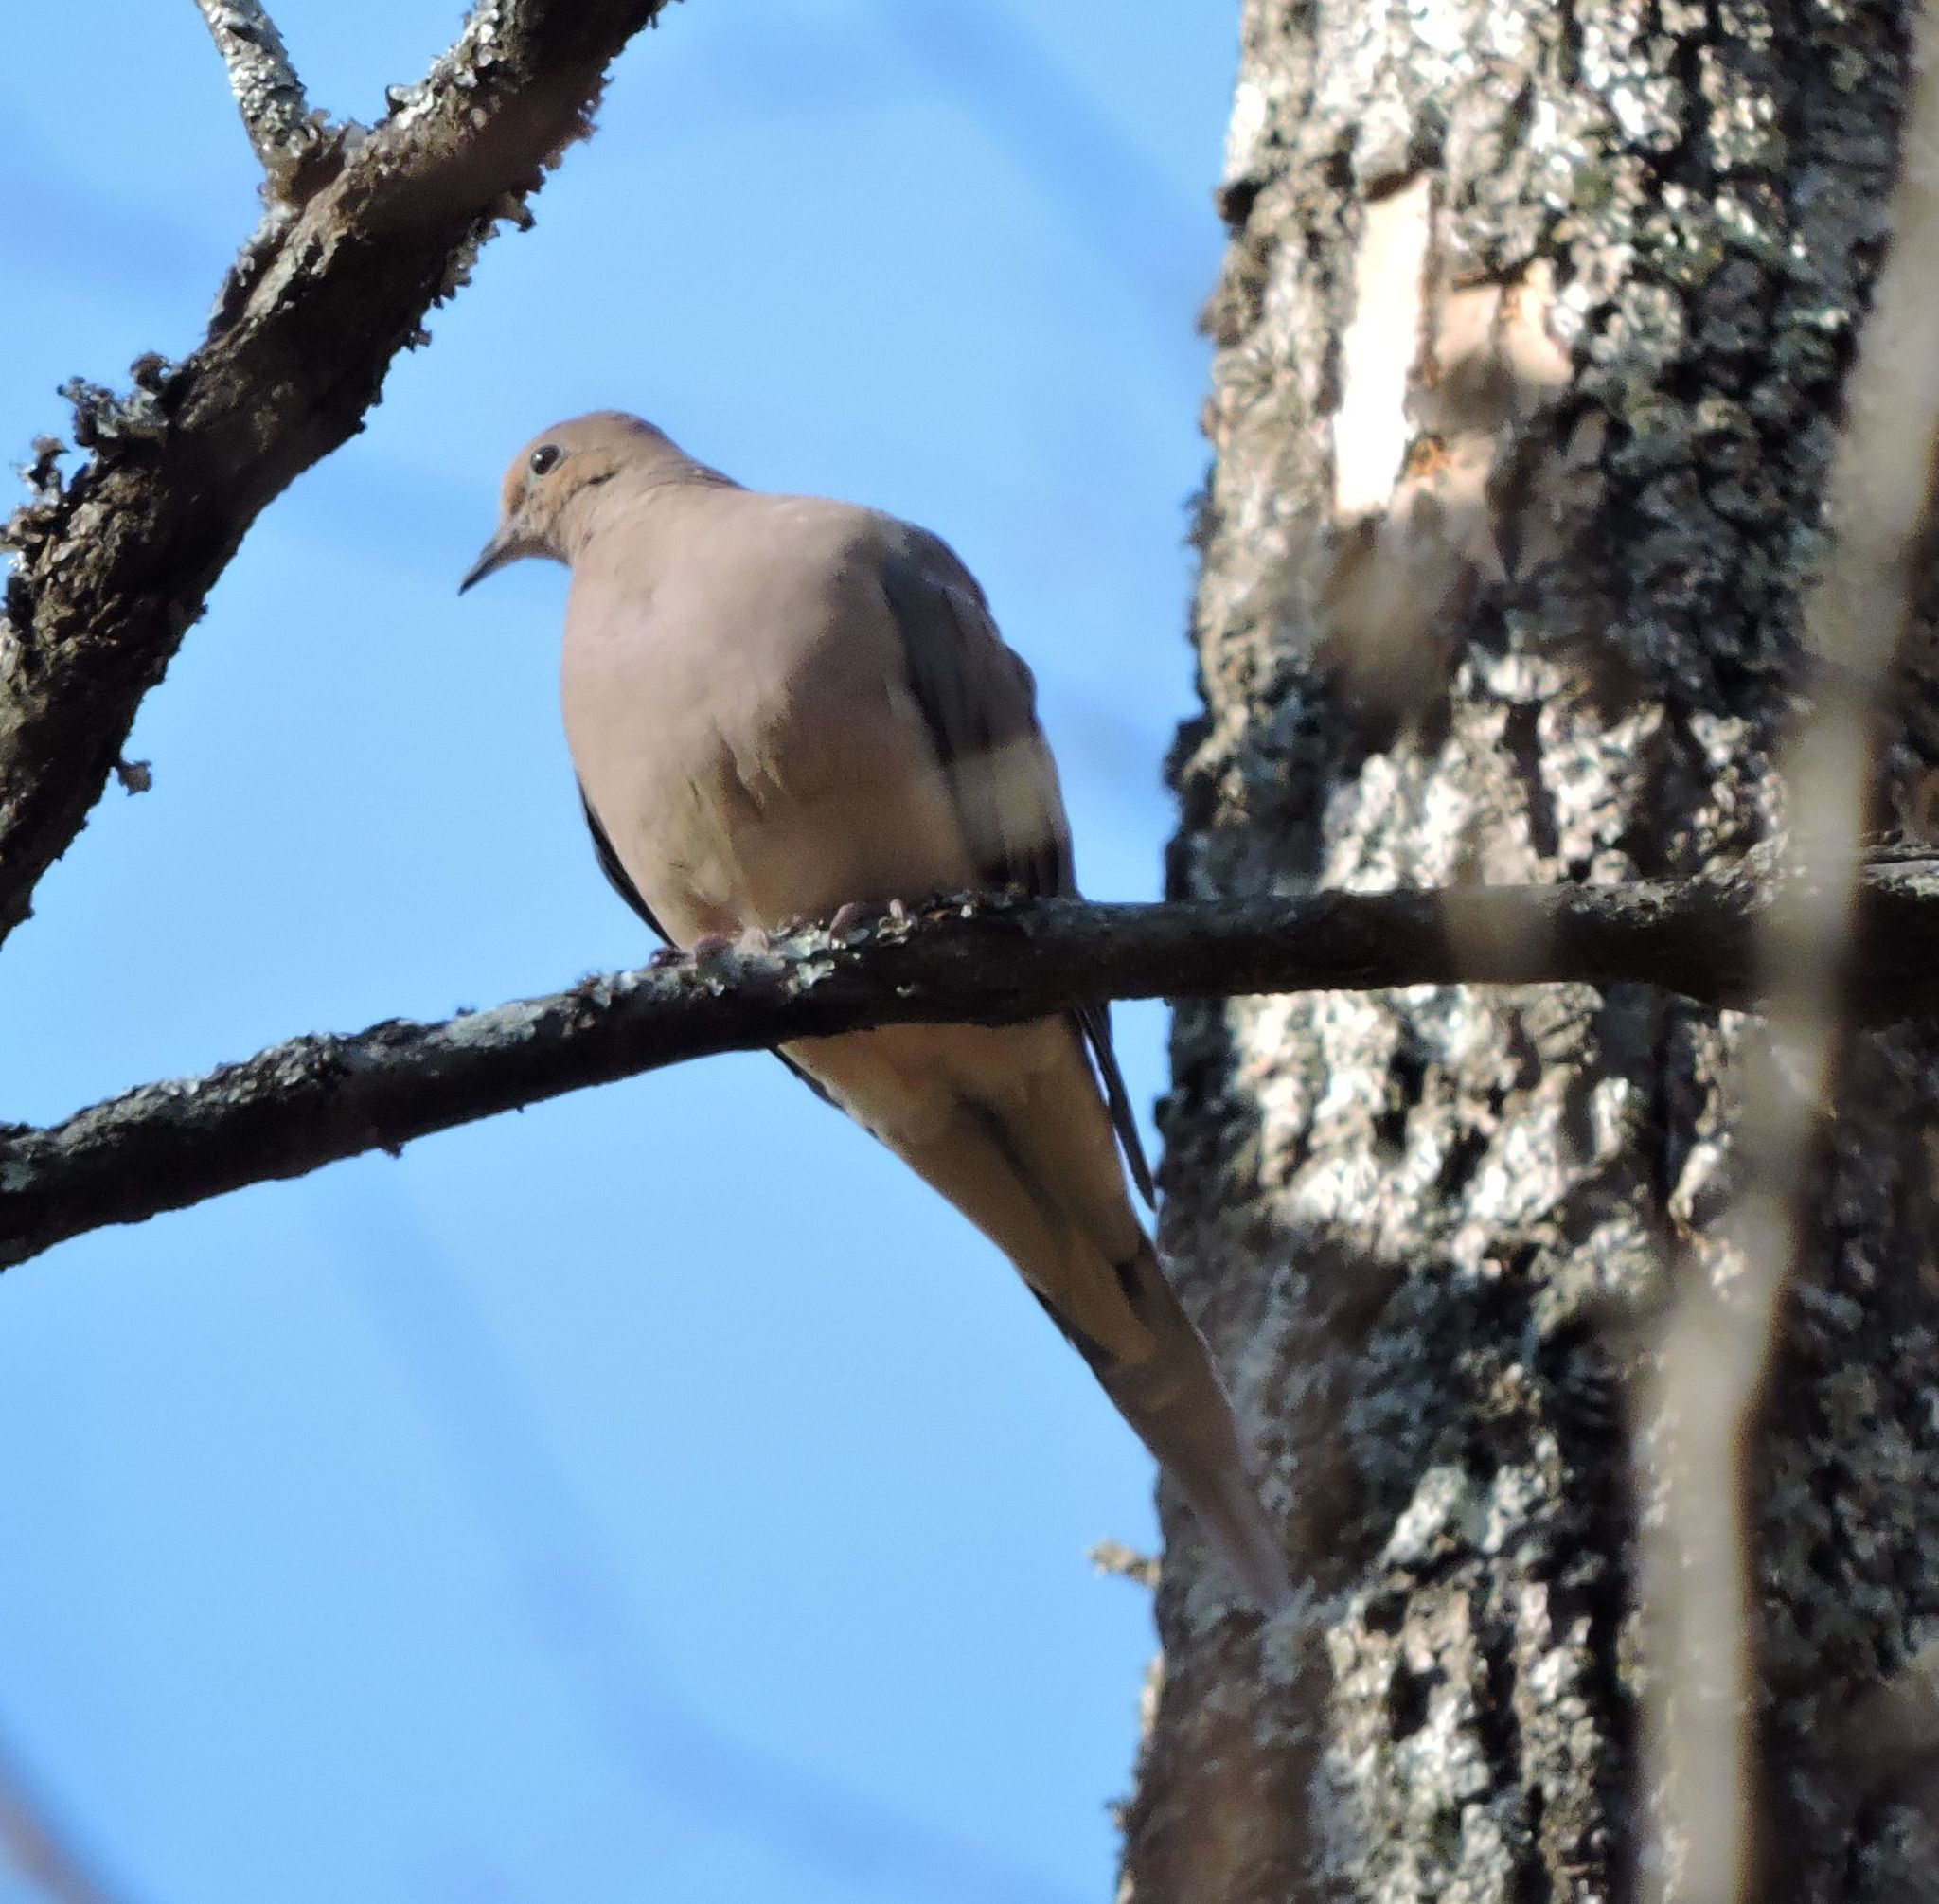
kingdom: Animalia
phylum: Chordata
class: Aves
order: Columbiformes
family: Columbidae
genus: Zenaida
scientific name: Zenaida macroura
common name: Mourning dove
